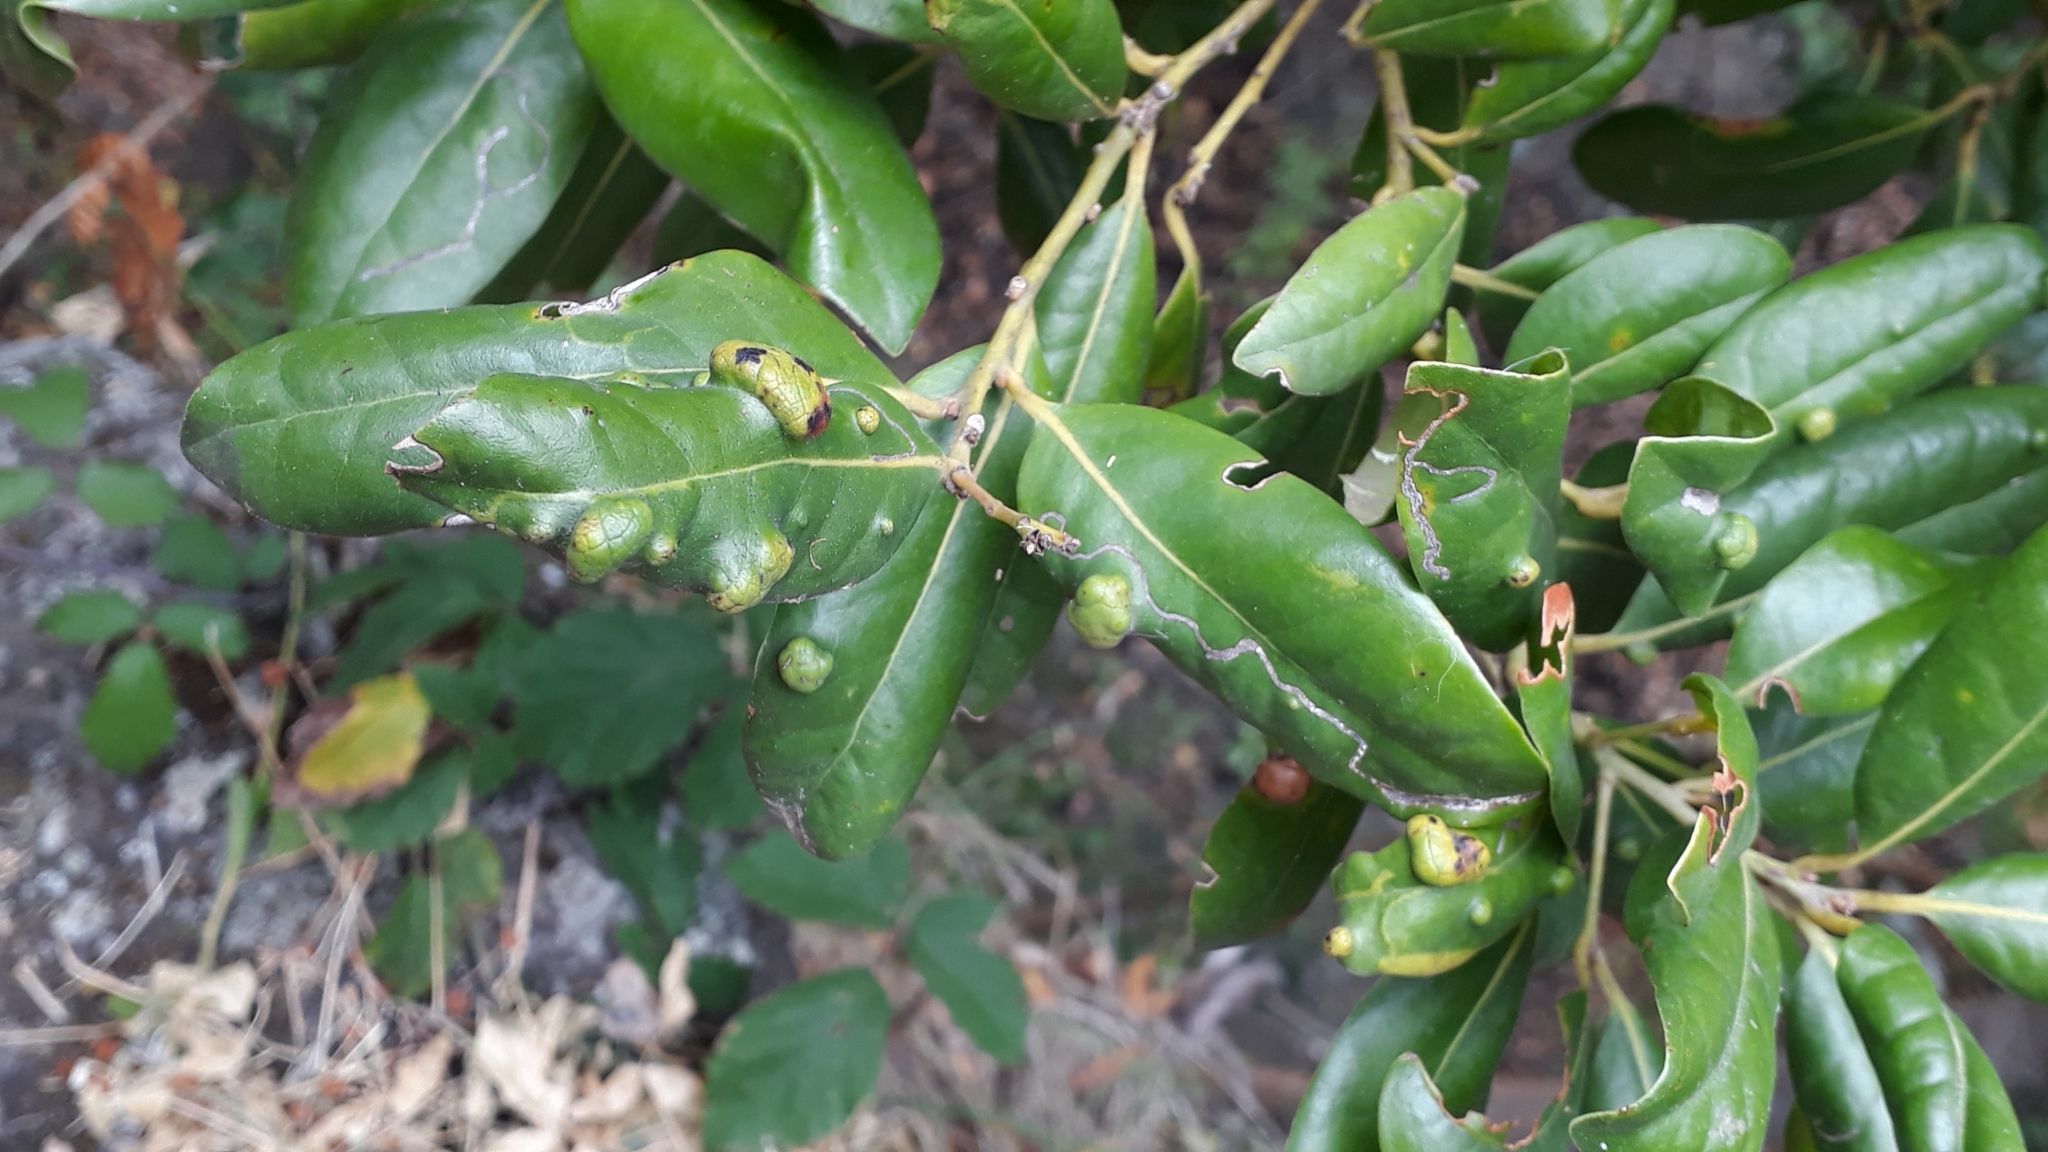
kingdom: Plantae
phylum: Tracheophyta
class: Magnoliopsida
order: Laurales
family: Lauraceae
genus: Apollonias
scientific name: Apollonias barbujana
